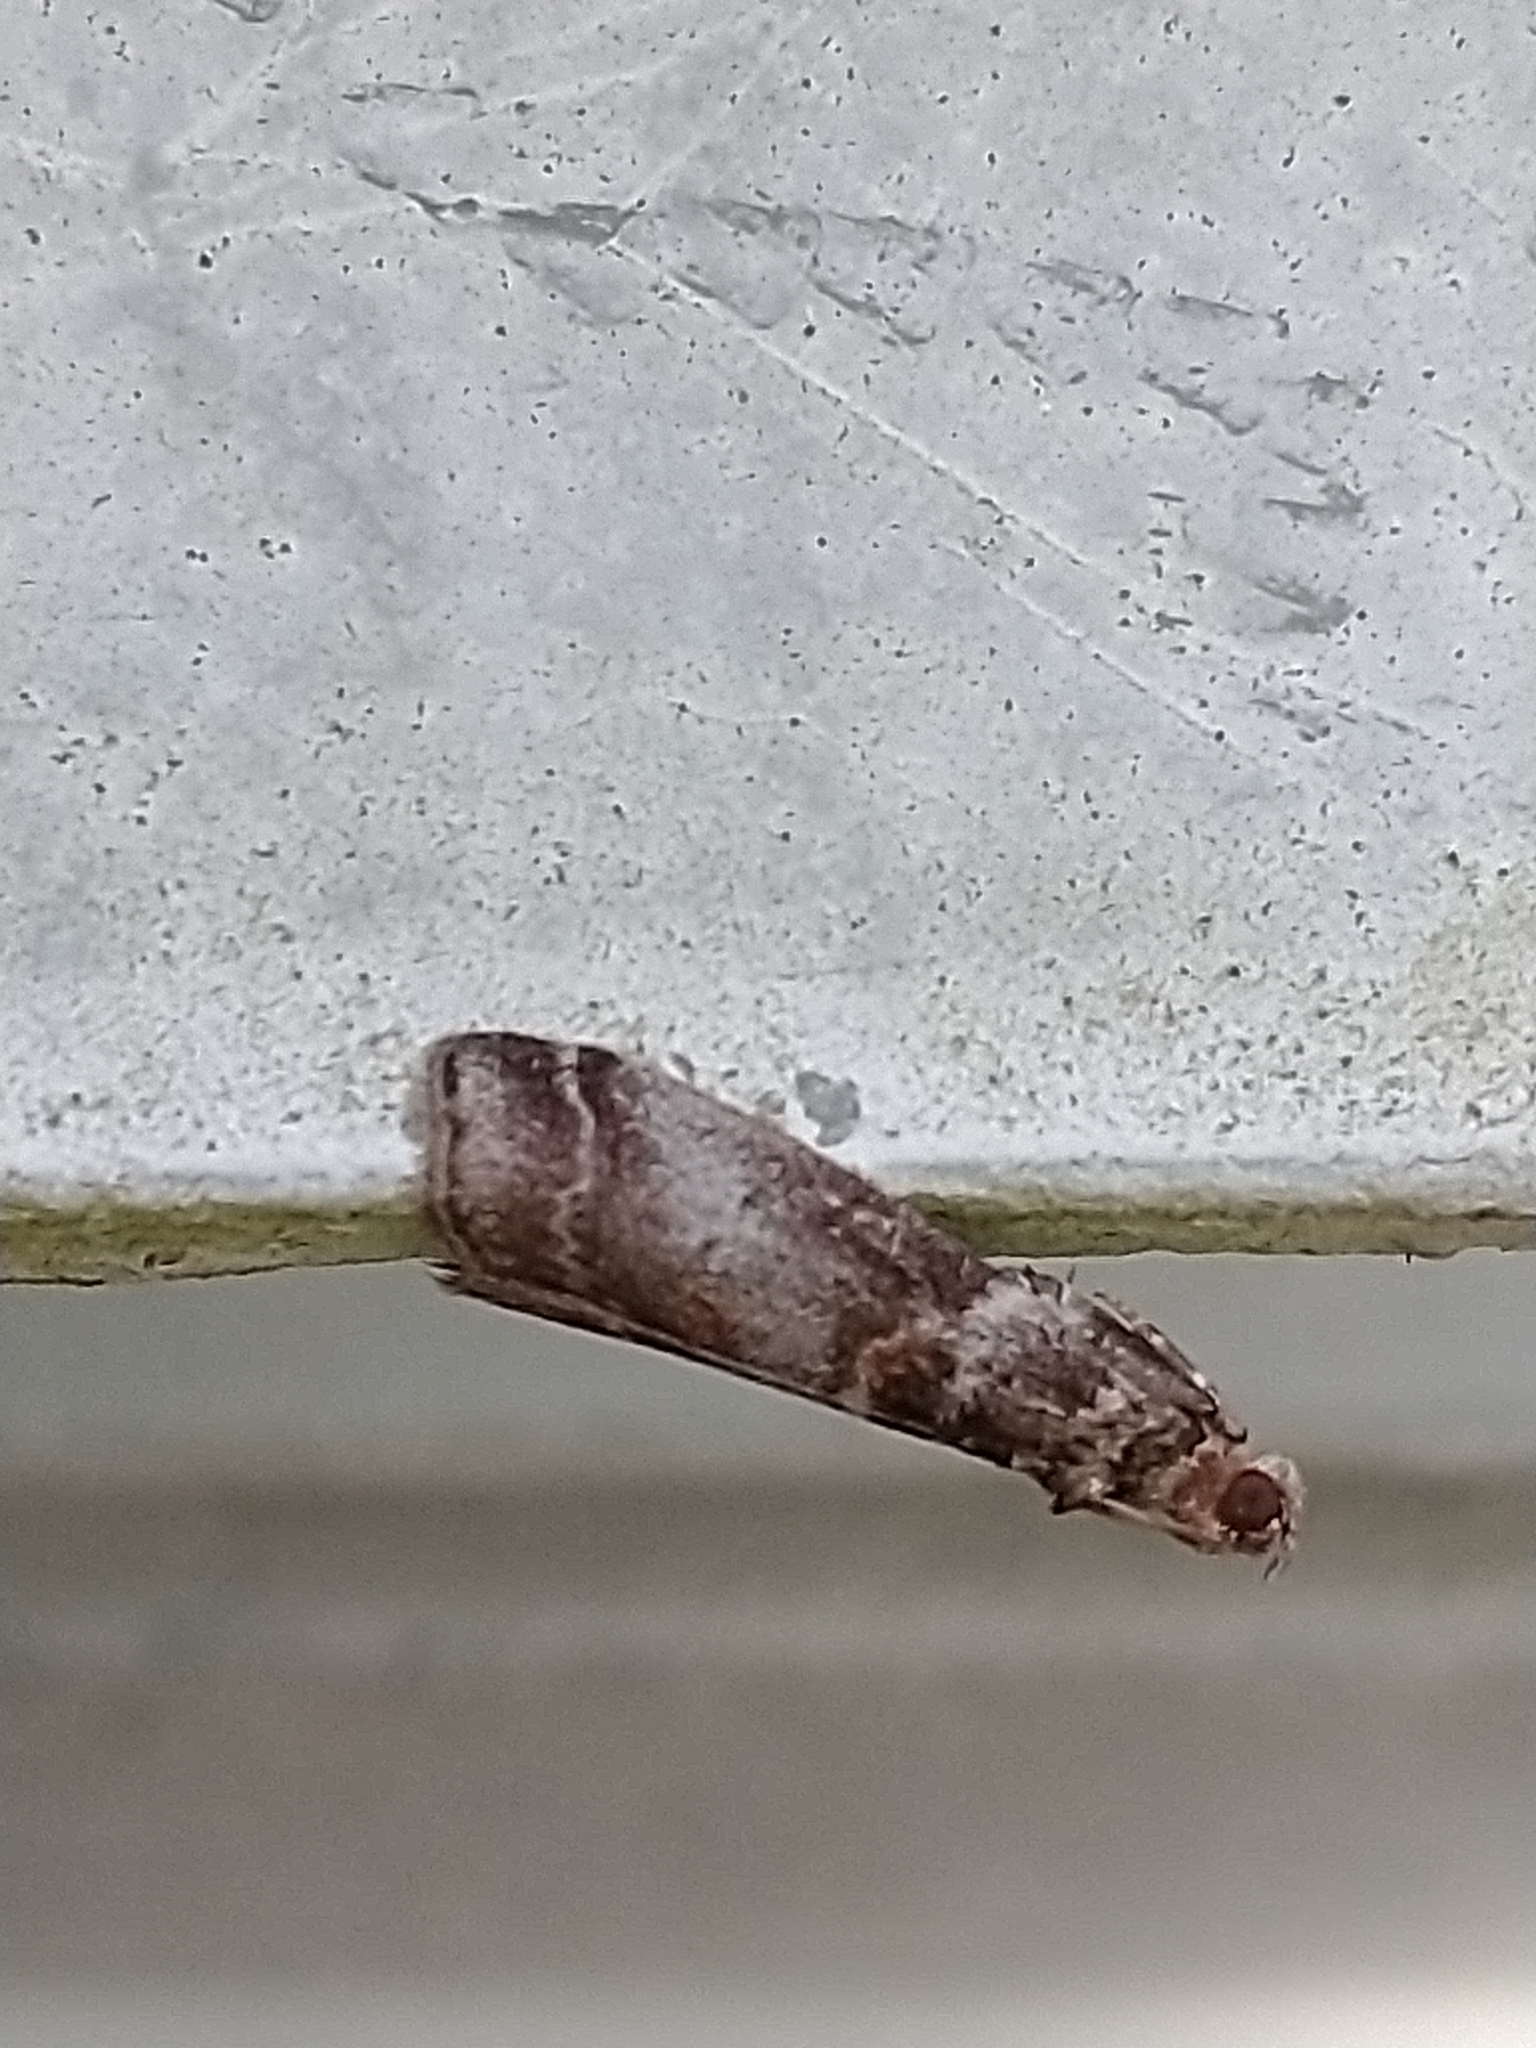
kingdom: Animalia
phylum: Arthropoda
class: Insecta
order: Lepidoptera
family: Pyralidae
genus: Acrobasis
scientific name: Acrobasis advenella
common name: Grey knot-horn
